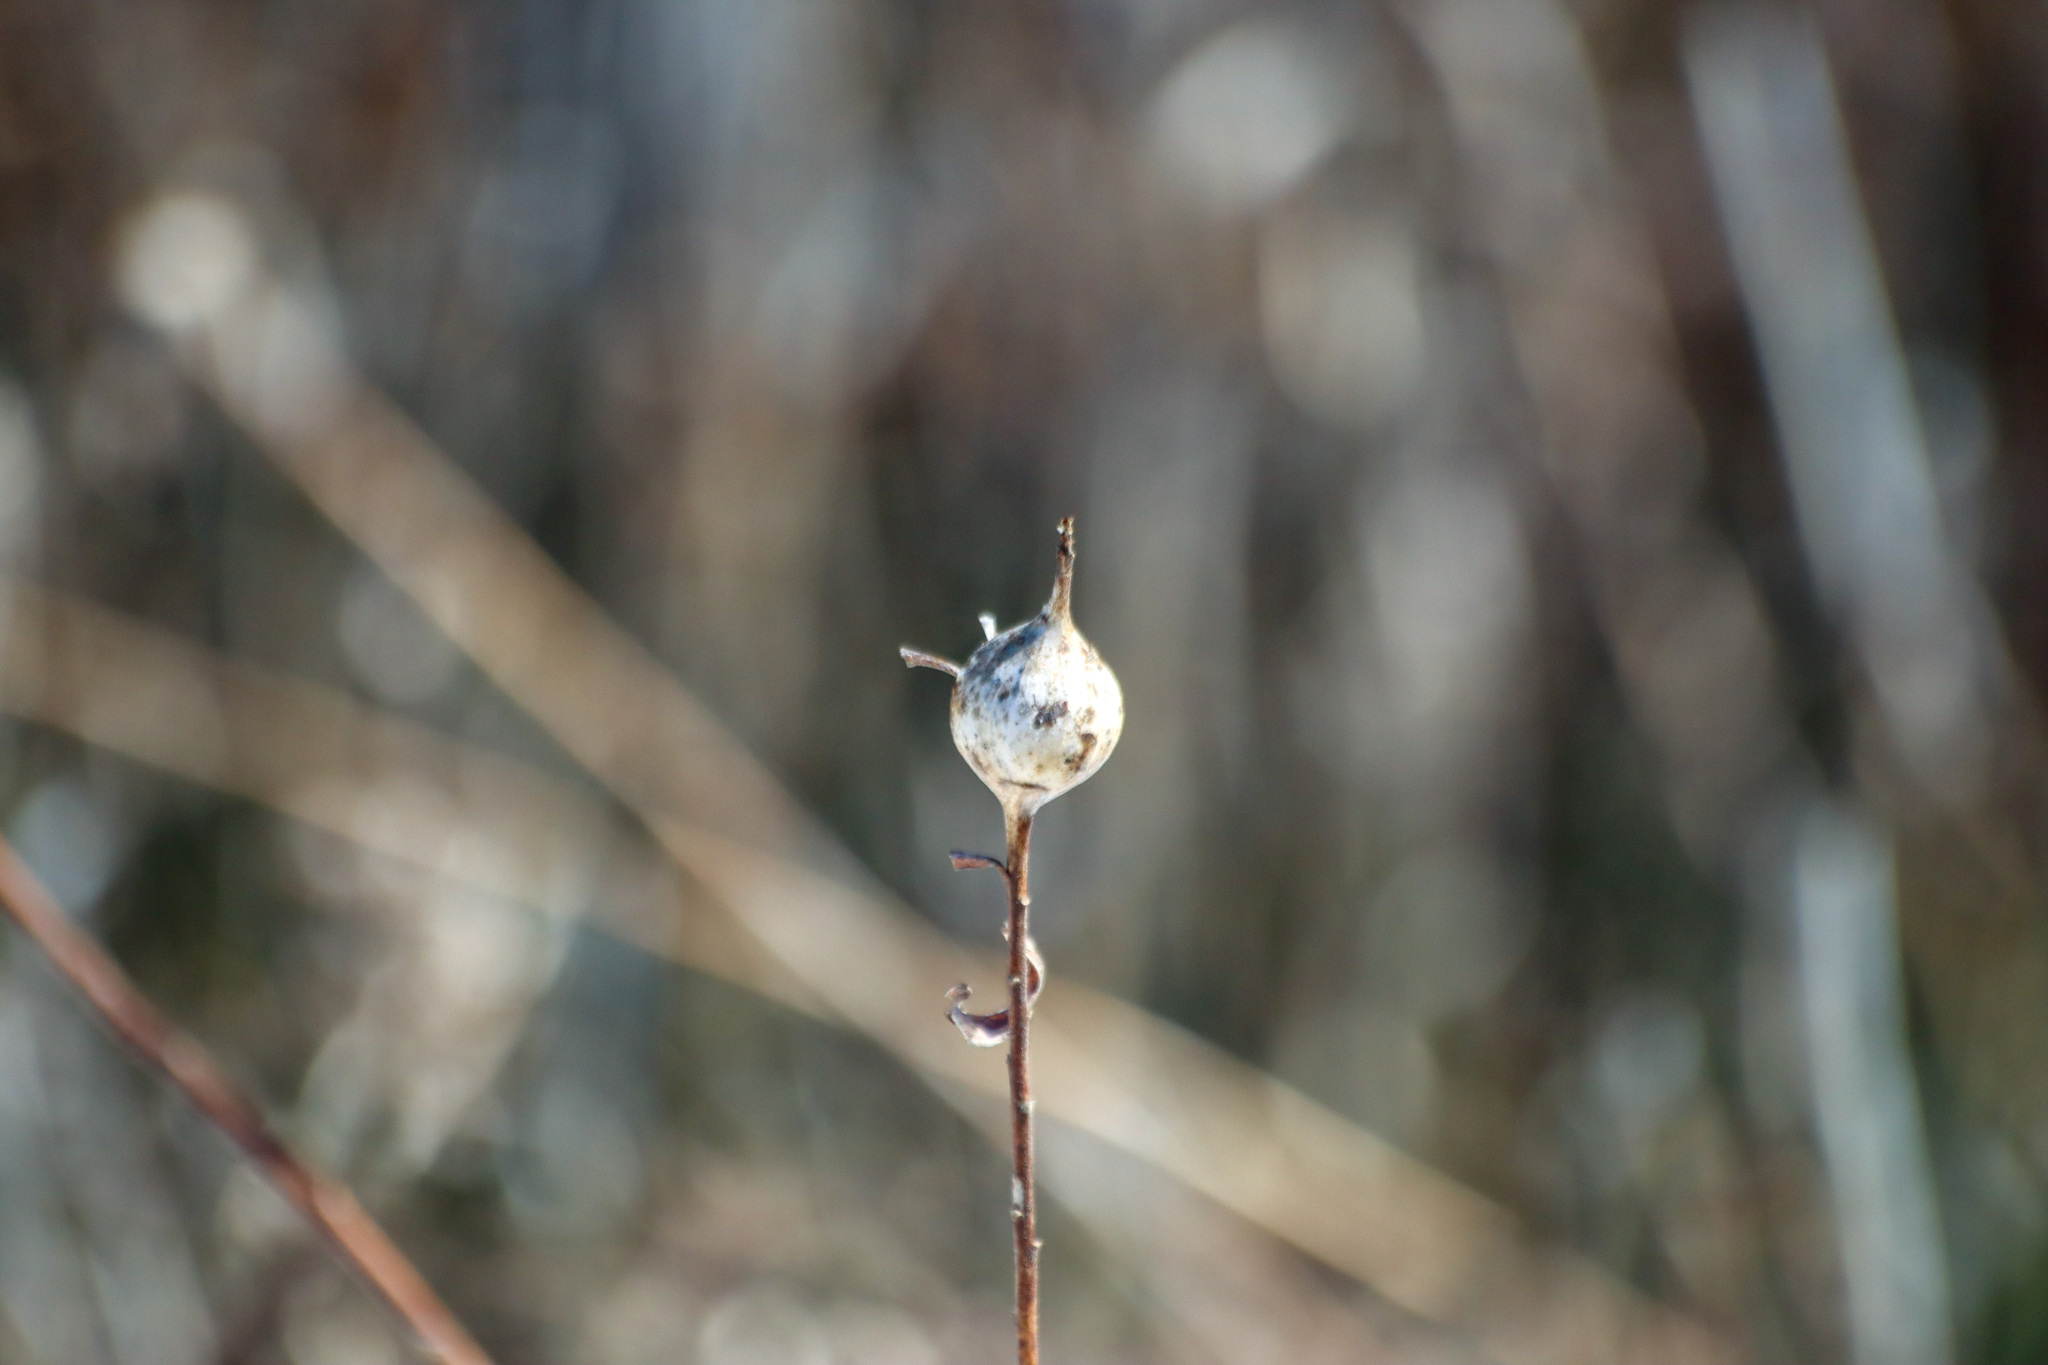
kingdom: Animalia
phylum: Arthropoda
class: Insecta
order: Diptera
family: Tephritidae
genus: Eurosta
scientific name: Eurosta solidaginis
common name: Goldenrod gall fly
